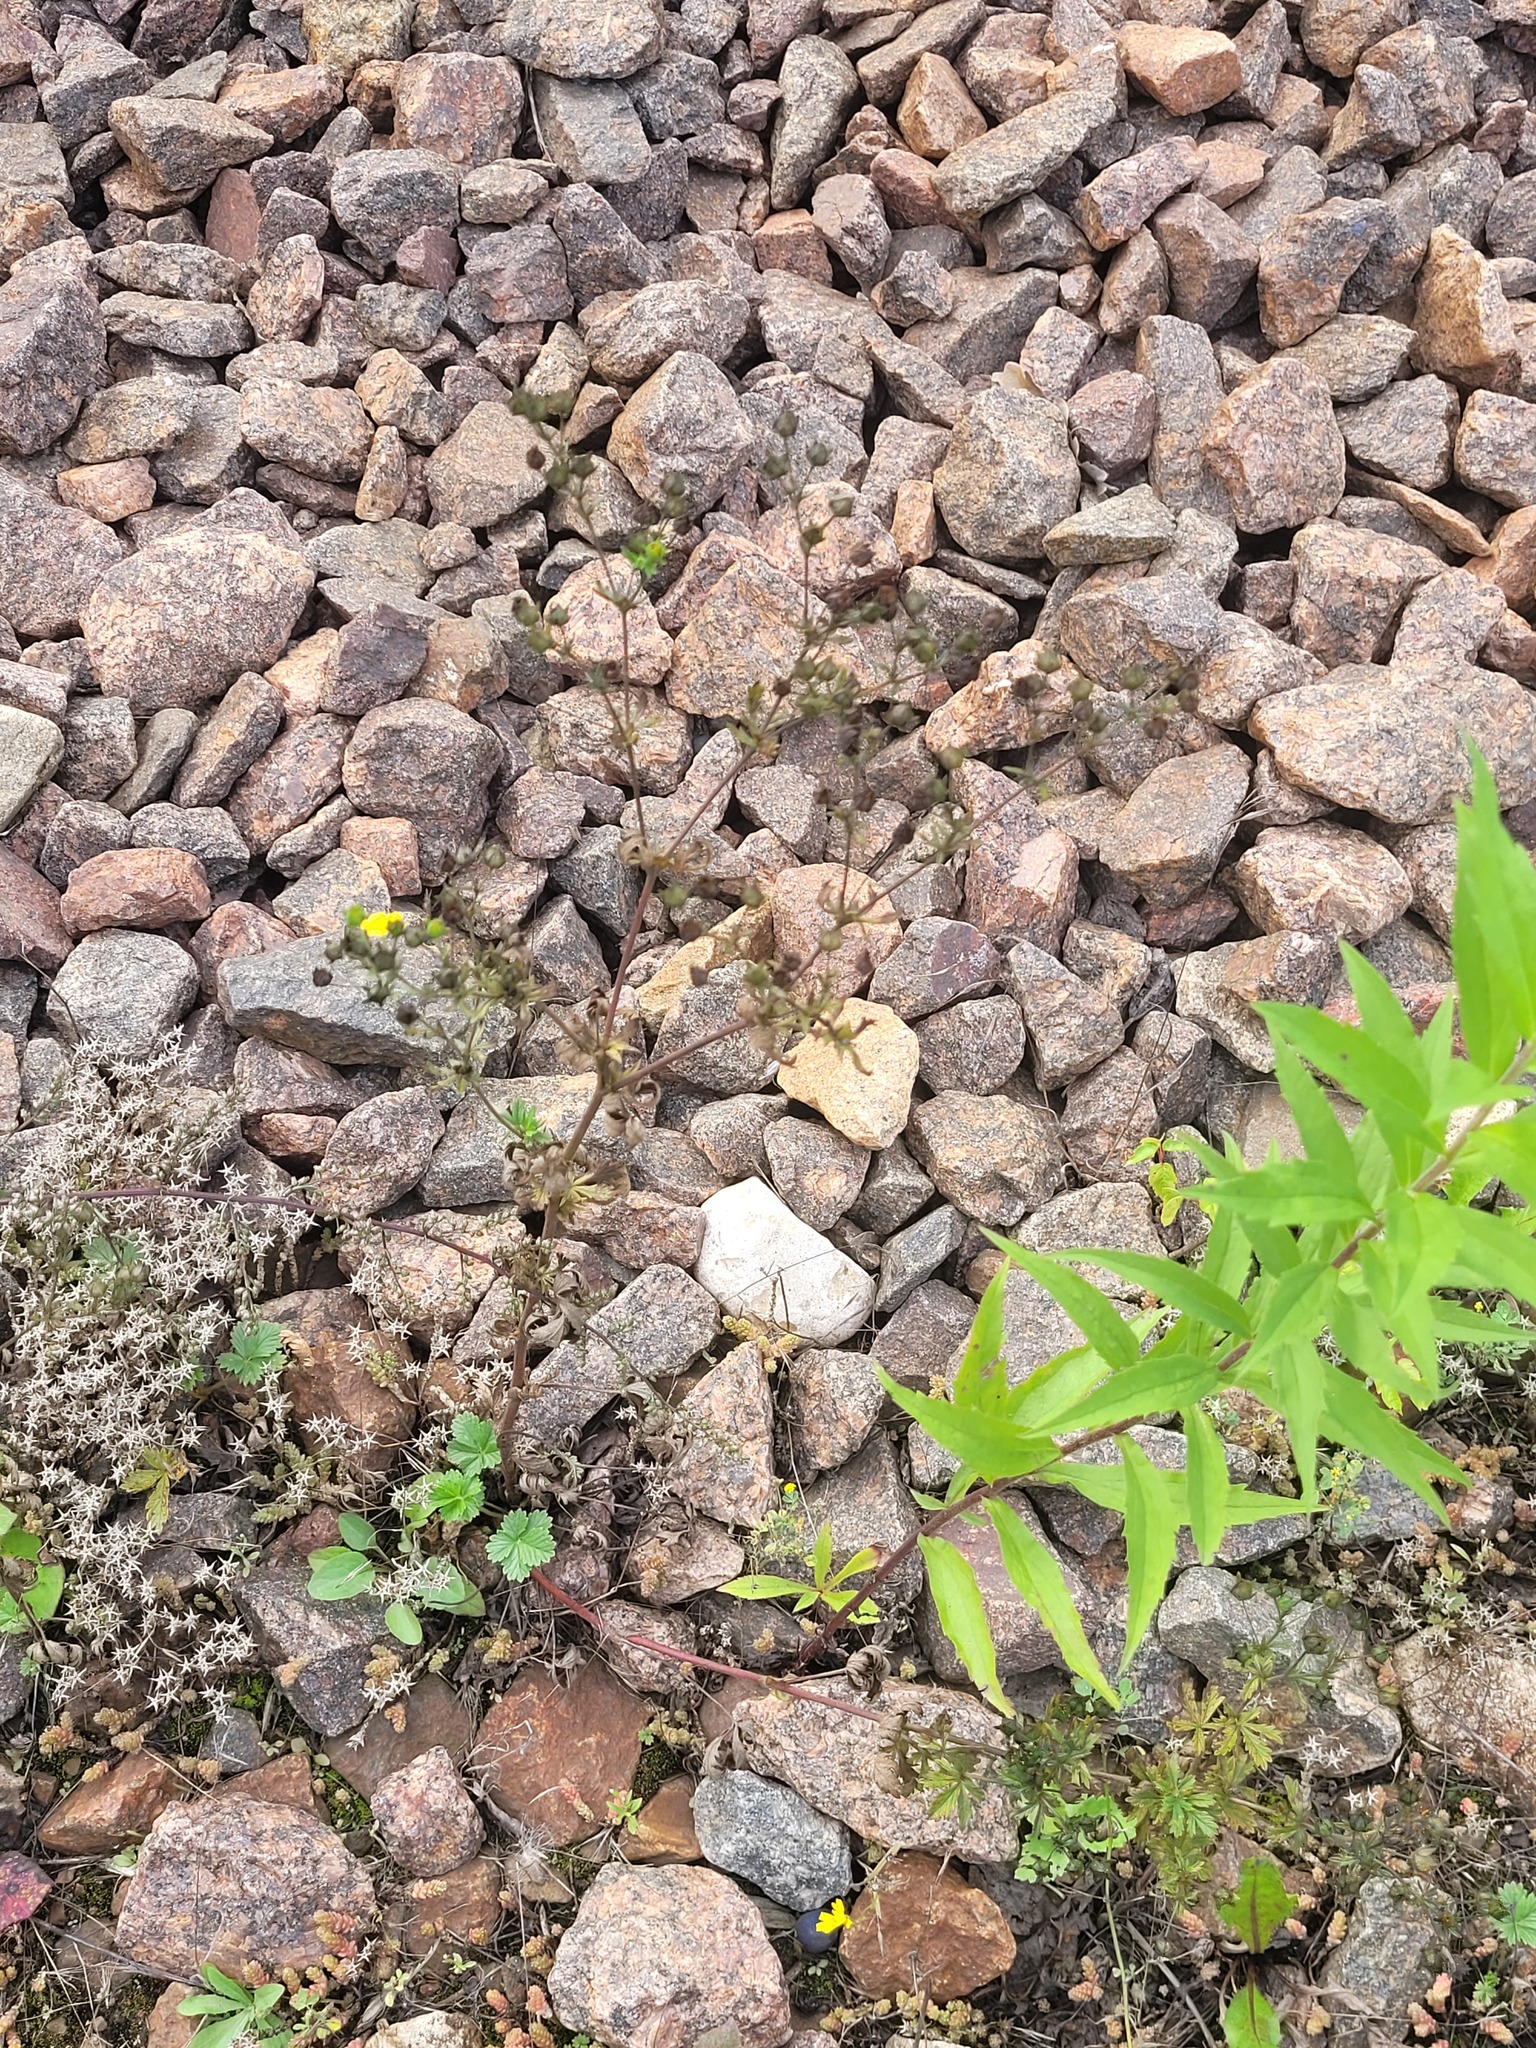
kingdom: Plantae
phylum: Tracheophyta
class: Magnoliopsida
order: Rosales
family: Rosaceae
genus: Potentilla
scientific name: Potentilla intermedia
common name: Downy cinquefoil
